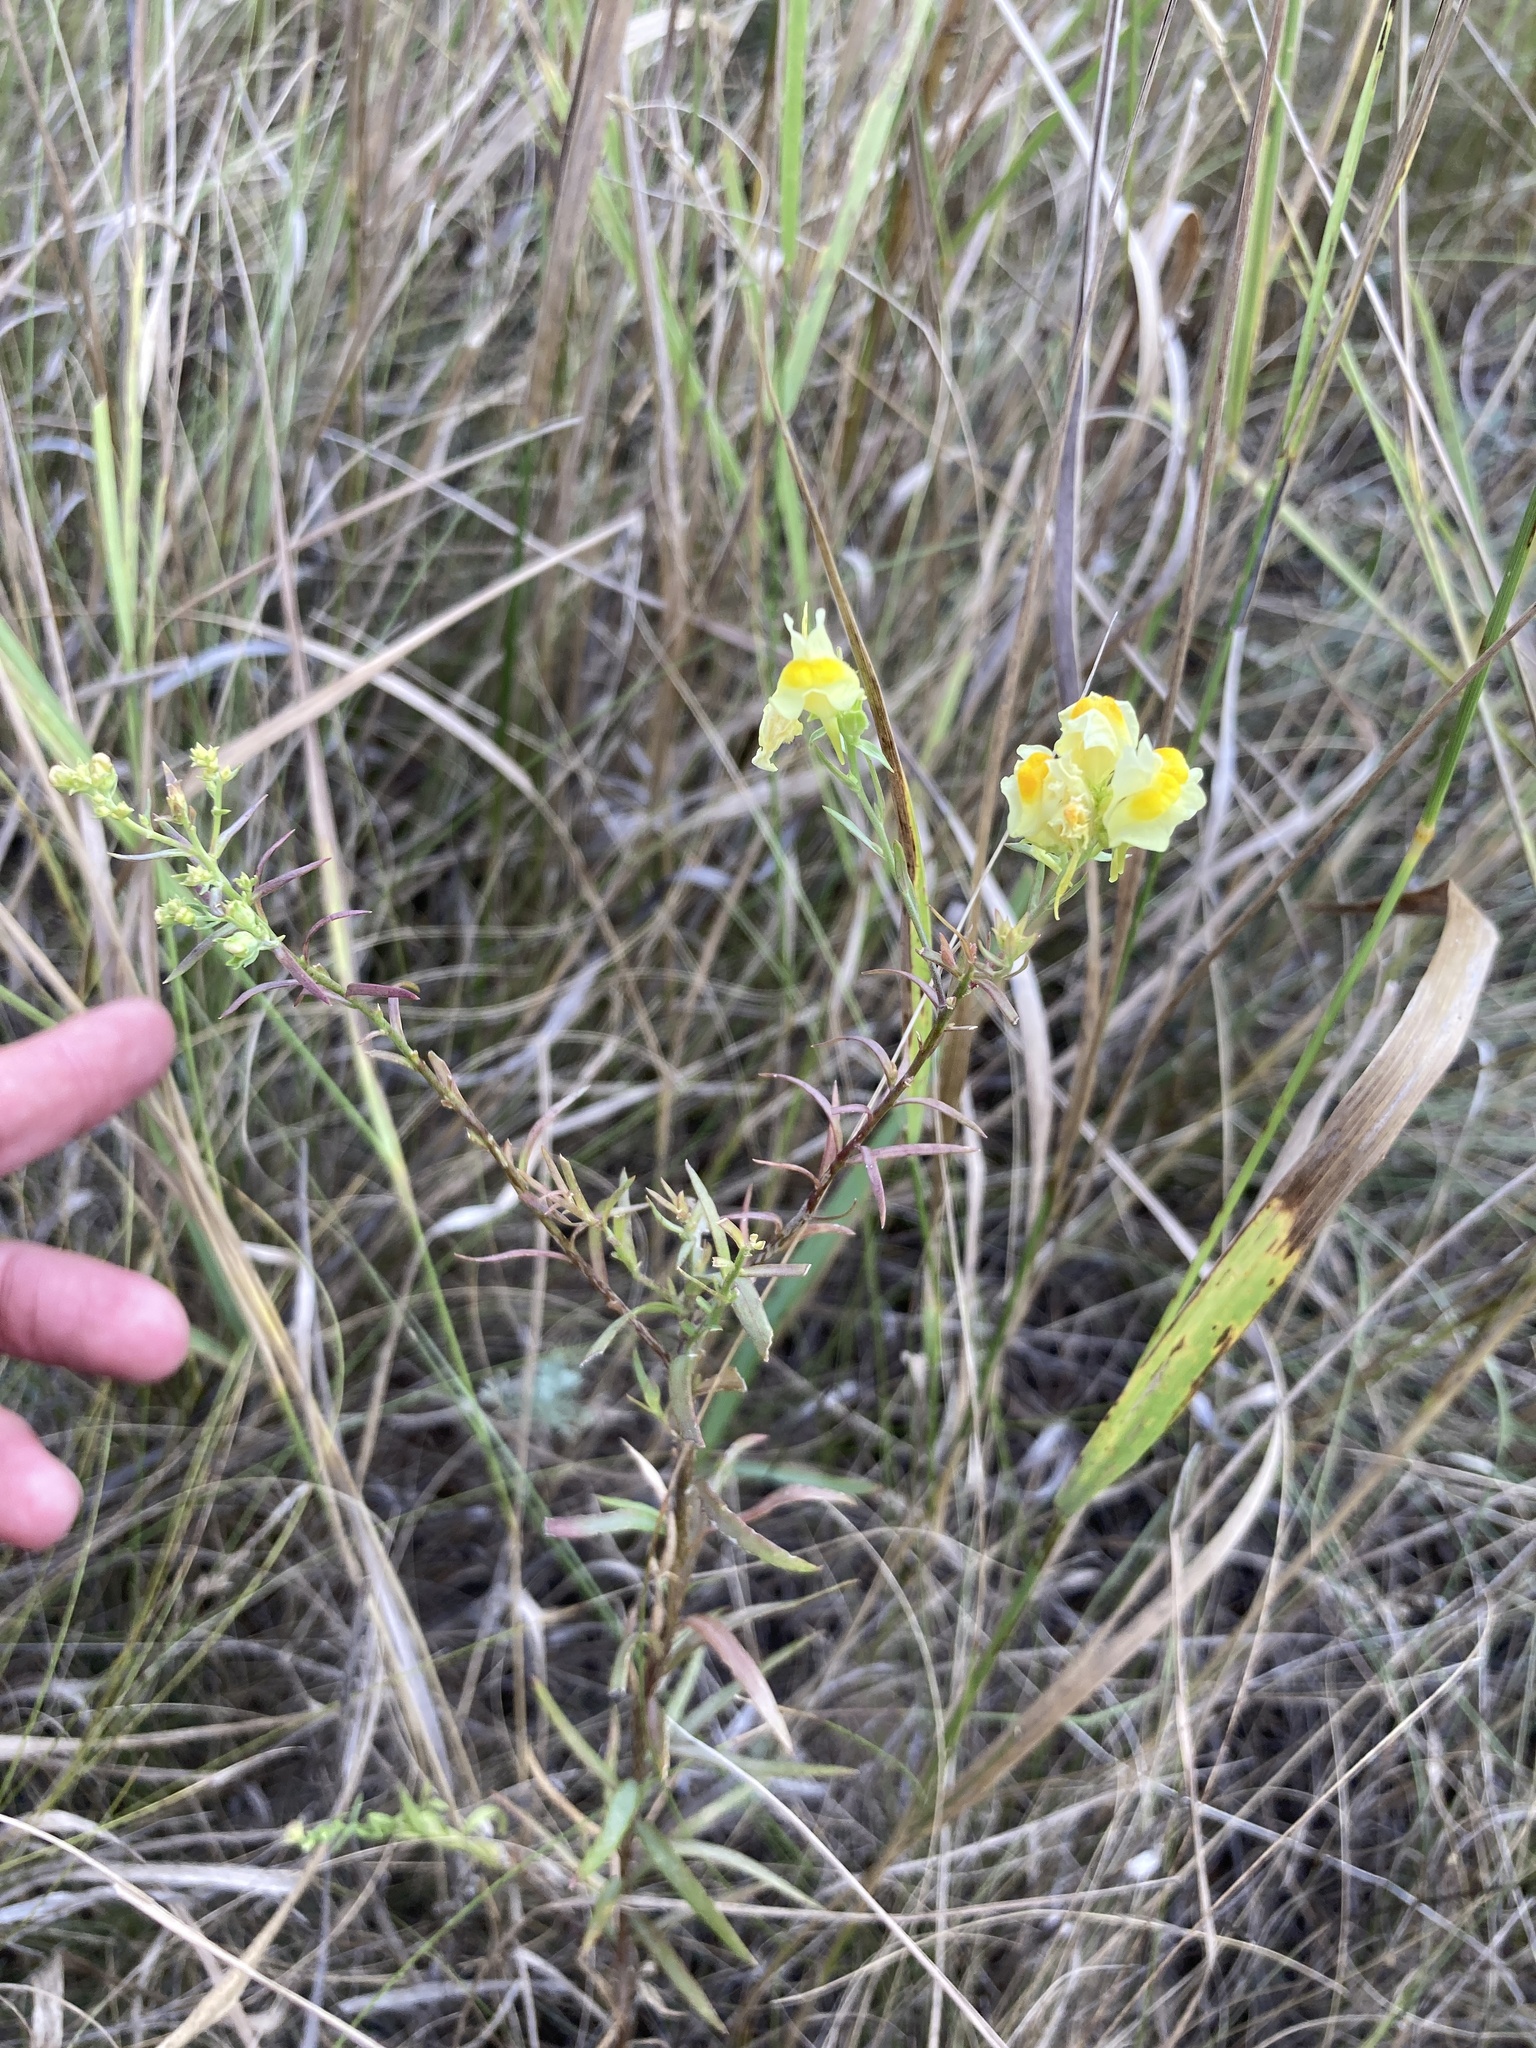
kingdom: Plantae
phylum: Tracheophyta
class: Magnoliopsida
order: Lamiales
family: Plantaginaceae
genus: Linaria
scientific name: Linaria vulgaris
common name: Butter and eggs
